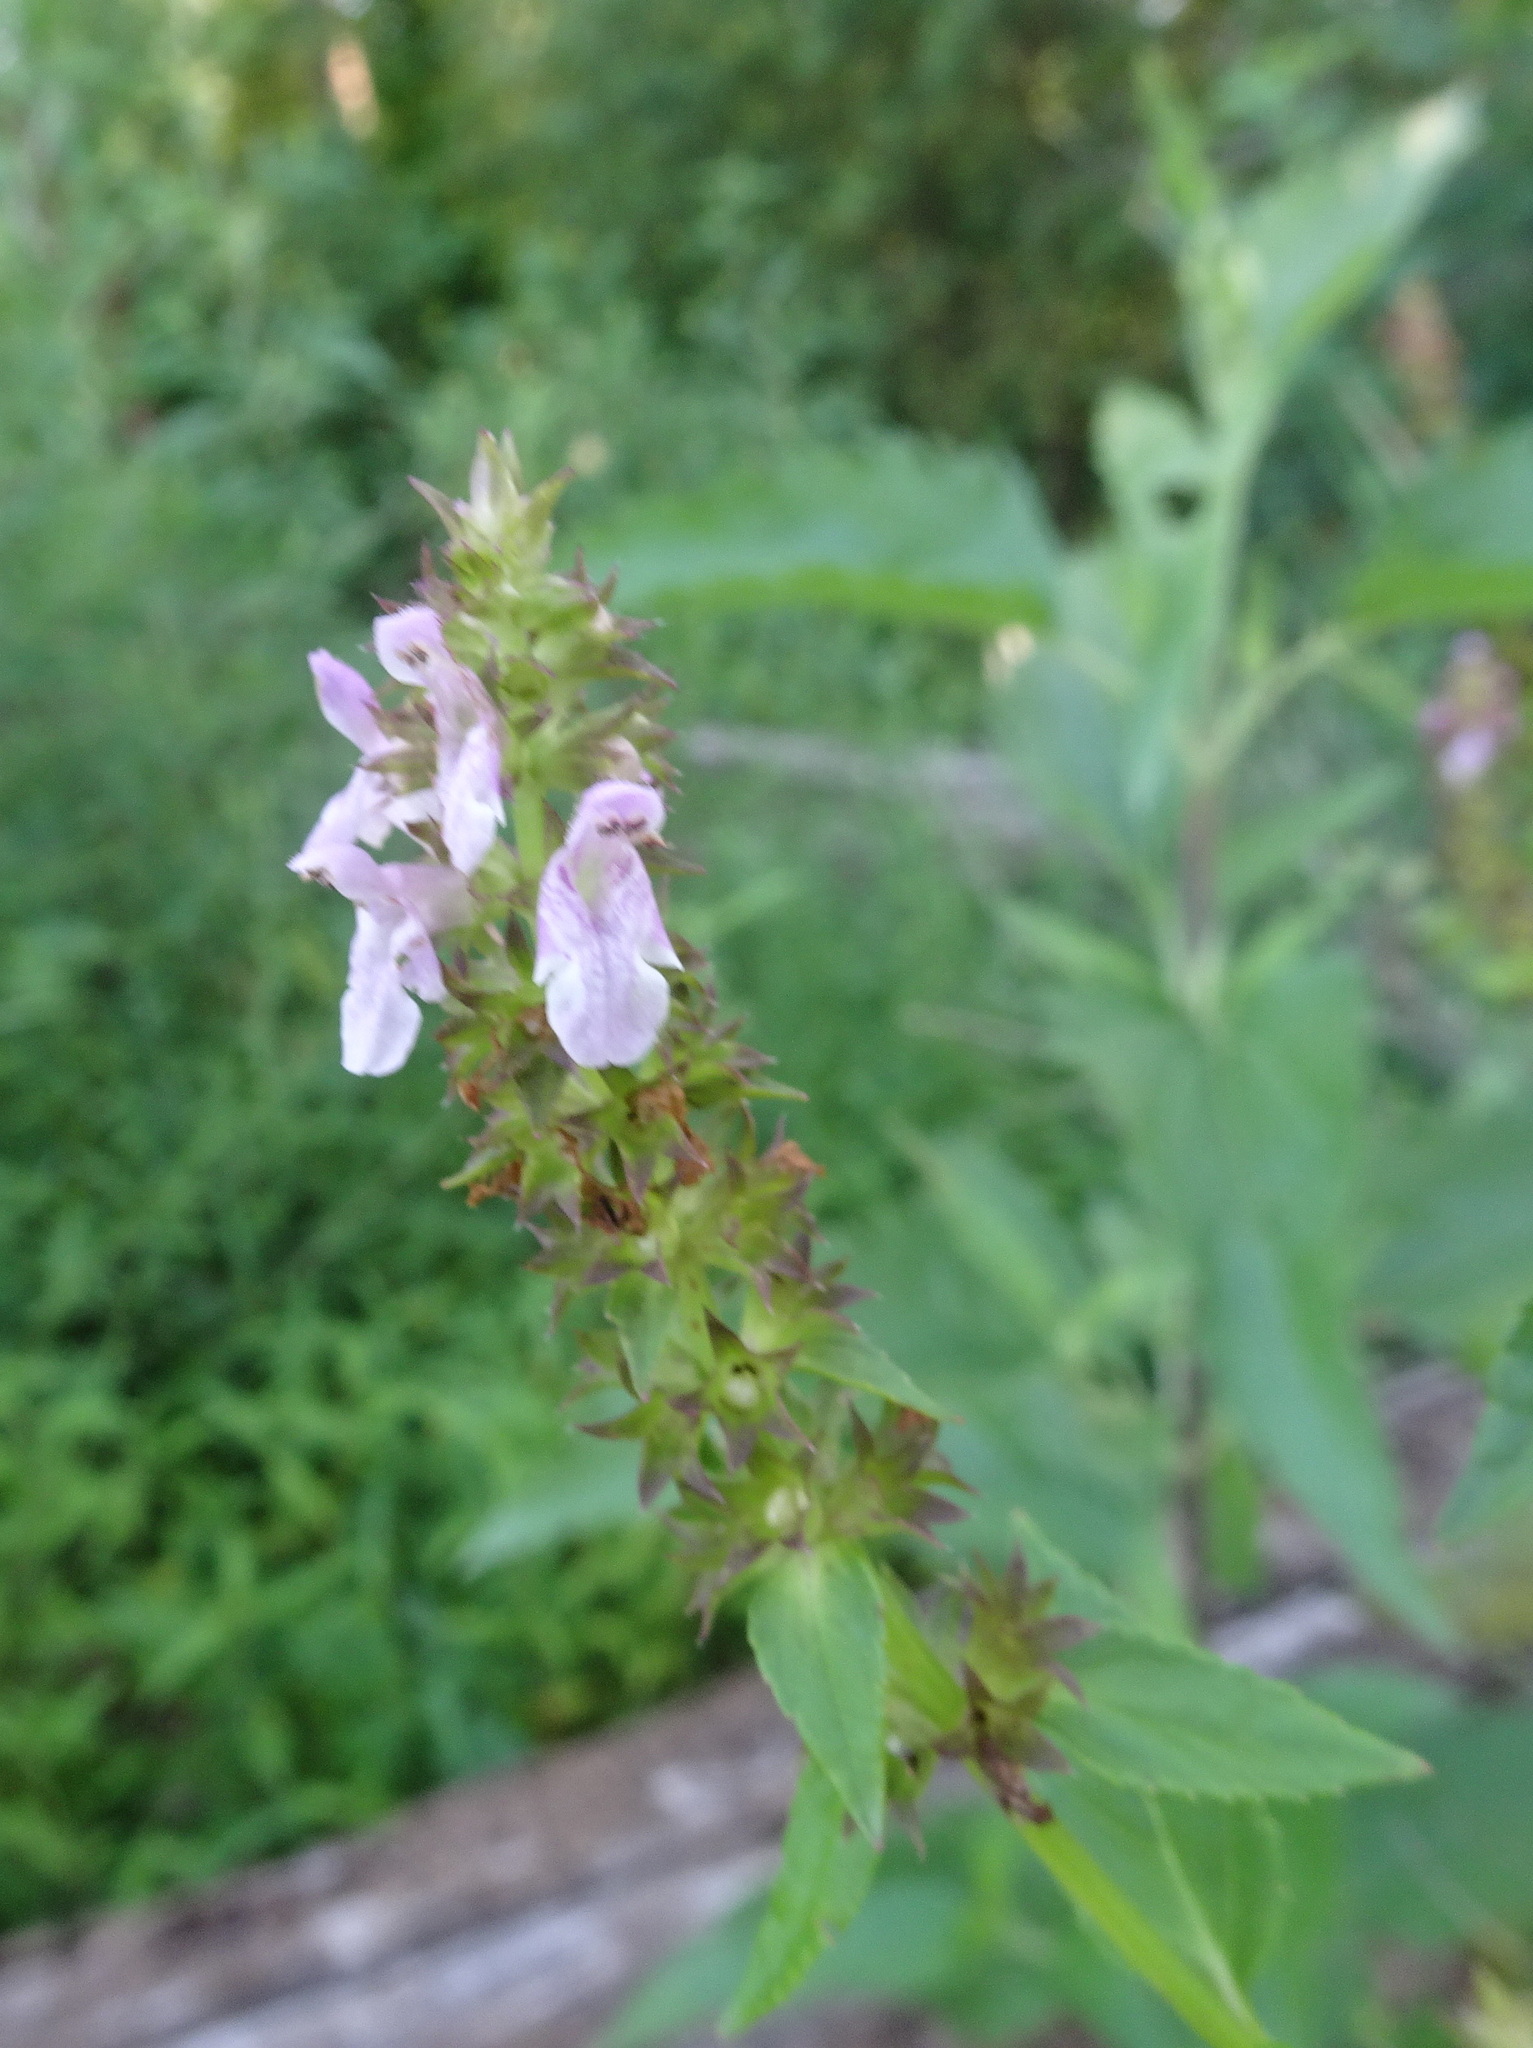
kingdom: Plantae
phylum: Tracheophyta
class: Magnoliopsida
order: Lamiales
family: Lamiaceae
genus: Stachys
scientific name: Stachys tenuifolia
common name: Smooth hedge-nettle
